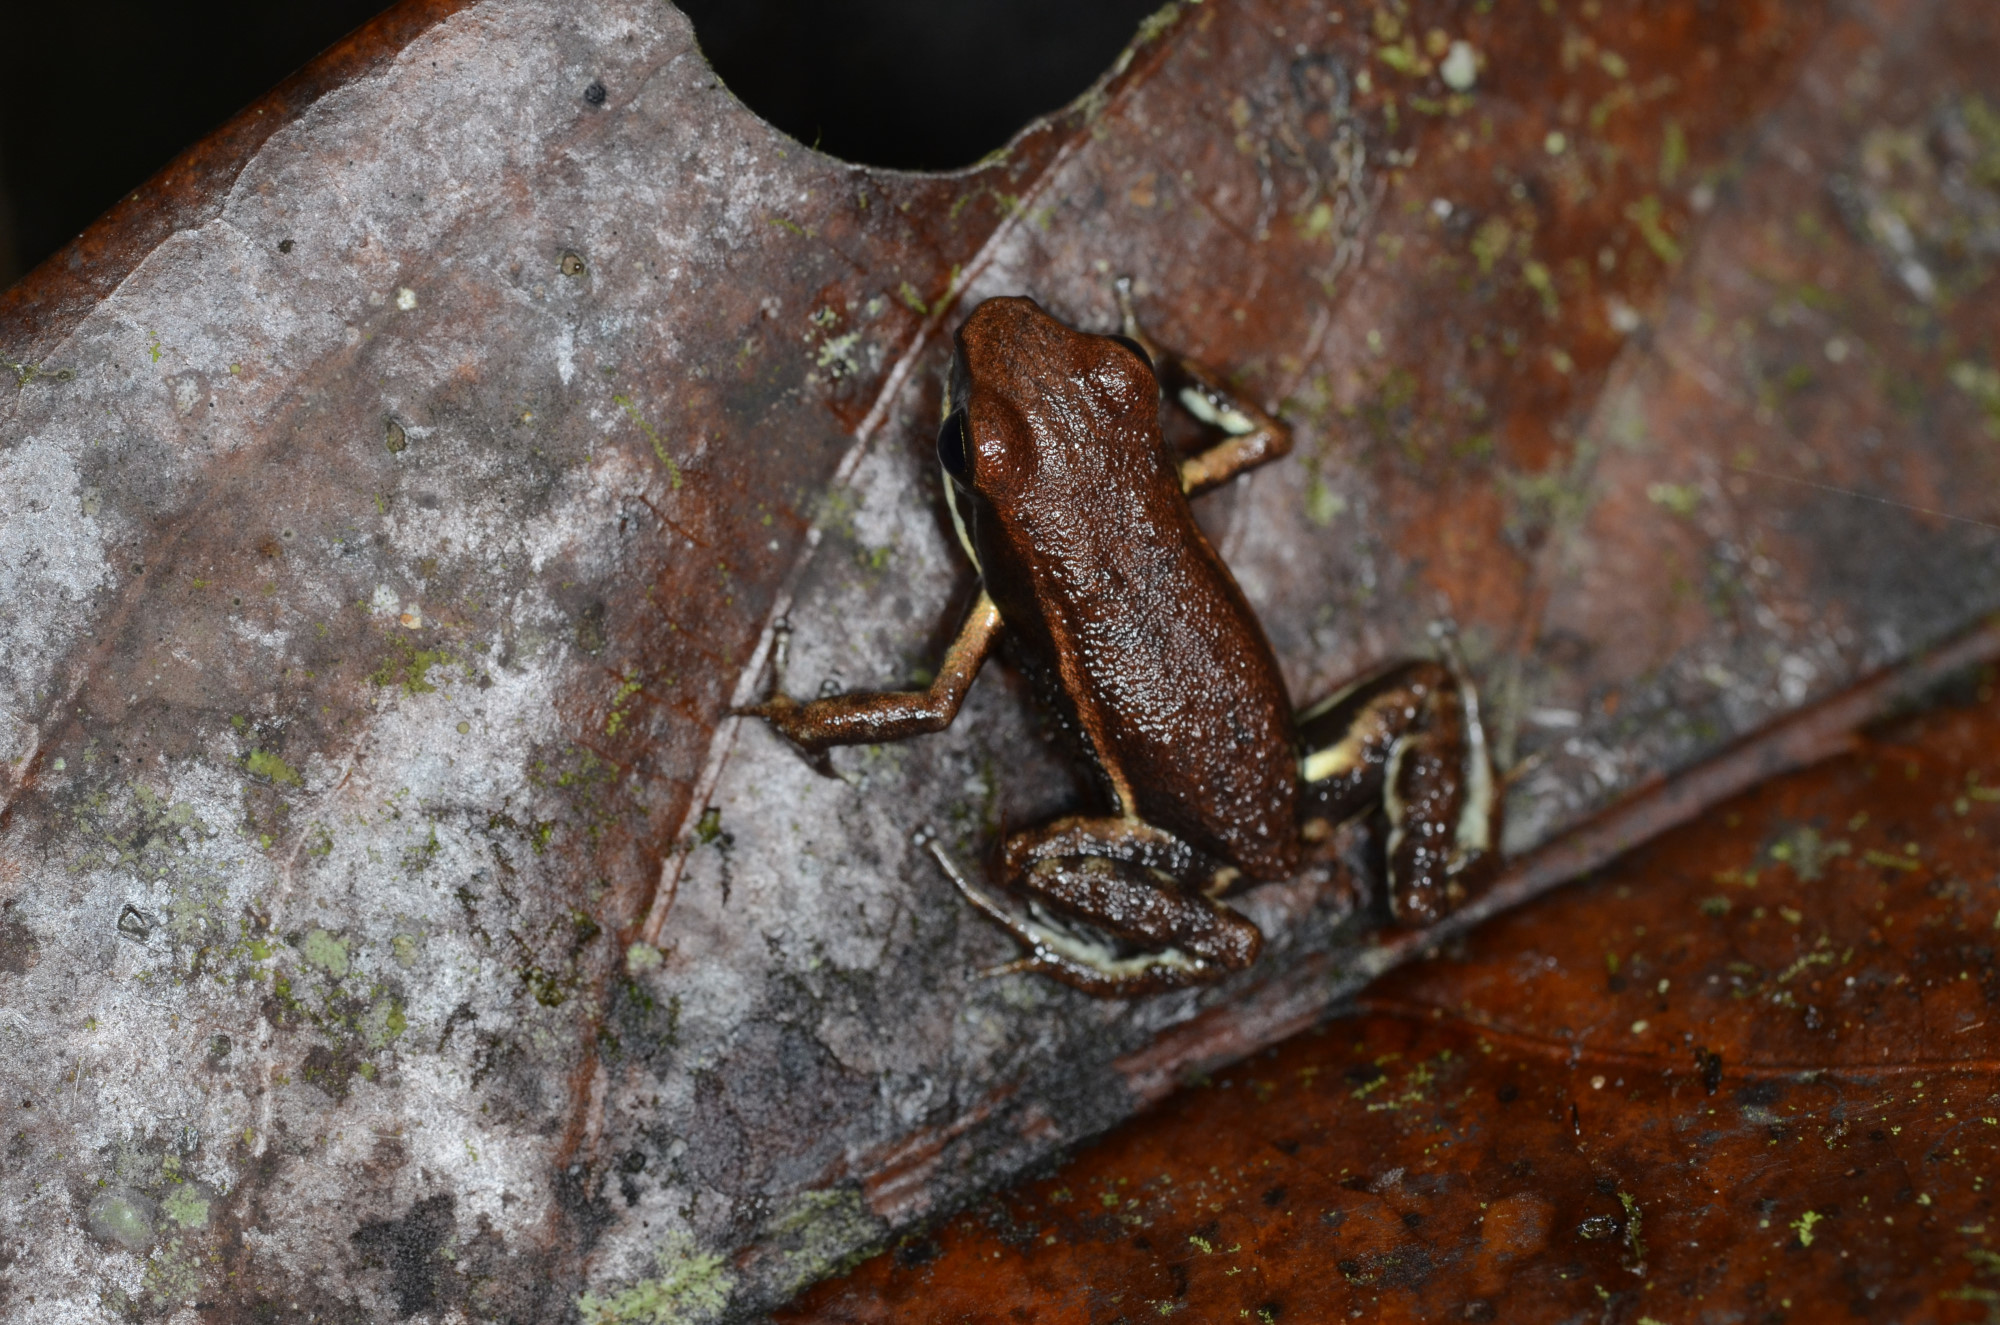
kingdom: Animalia
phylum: Chordata
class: Amphibia
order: Anura
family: Dendrobatidae
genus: Epipedobates
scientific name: Epipedobates boulengeri
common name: Marbled poison-arrow frog
